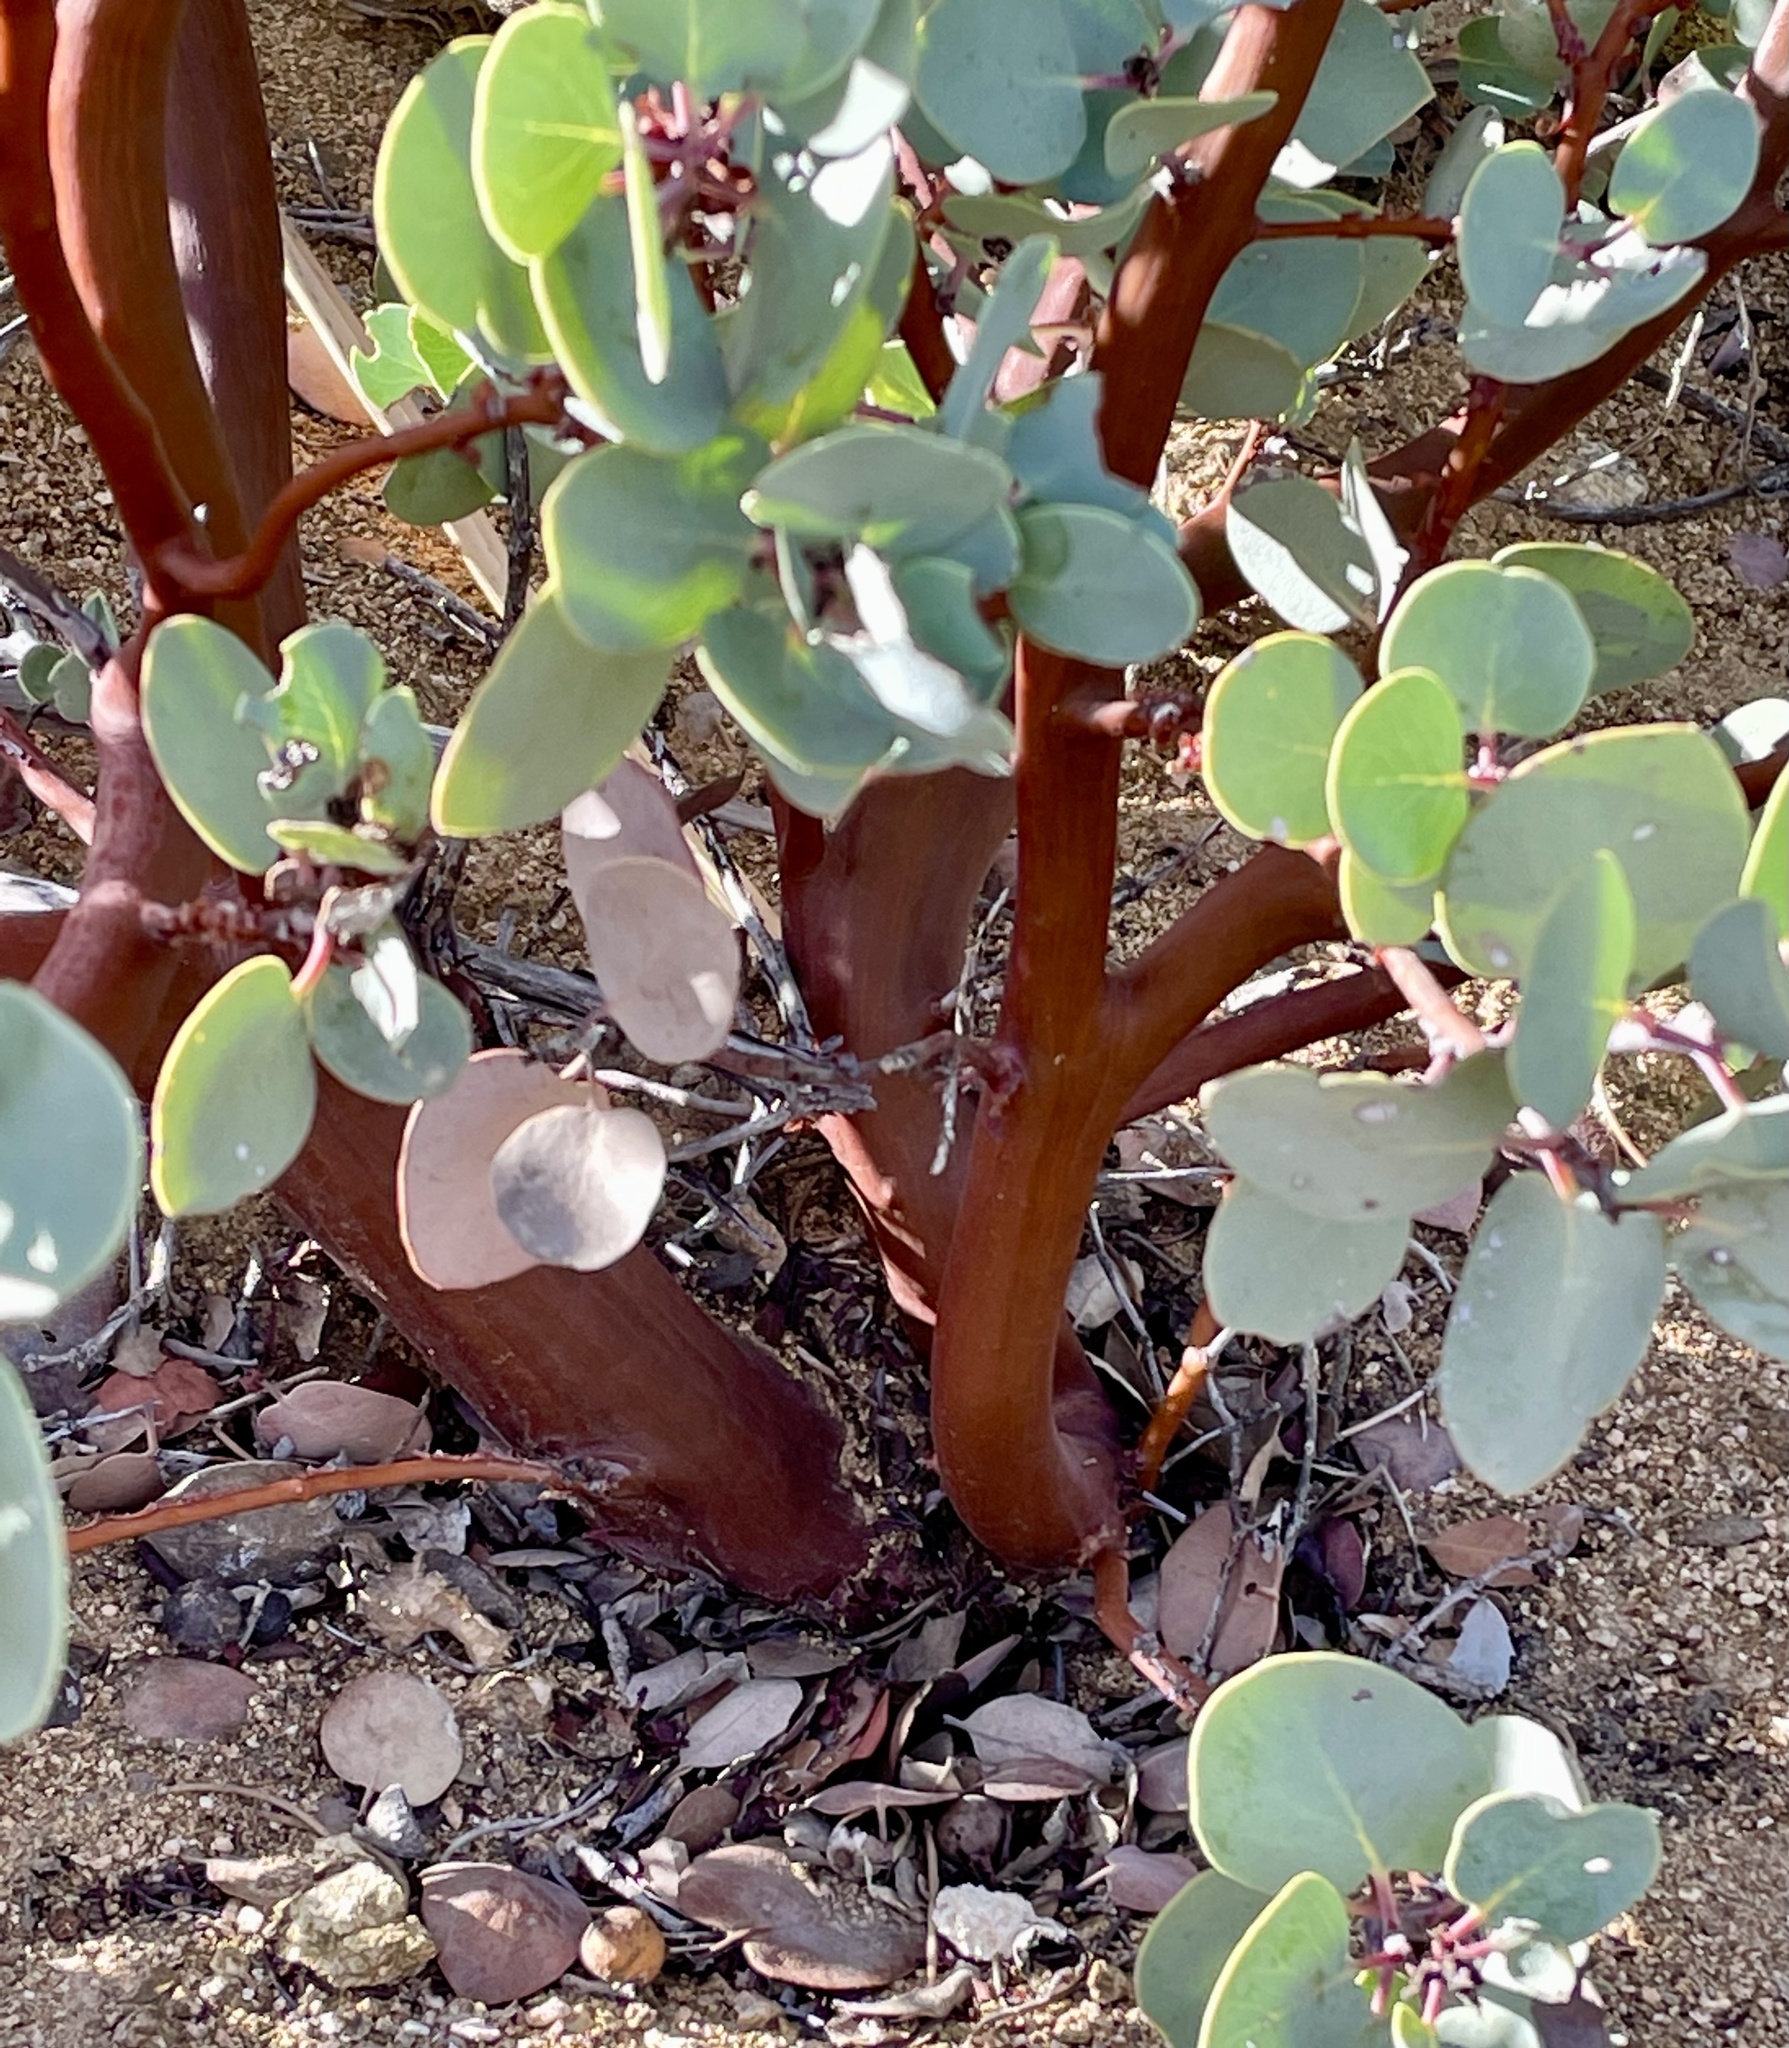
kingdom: Plantae
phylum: Tracheophyta
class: Magnoliopsida
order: Ericales
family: Ericaceae
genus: Arctostaphylos
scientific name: Arctostaphylos glauca
